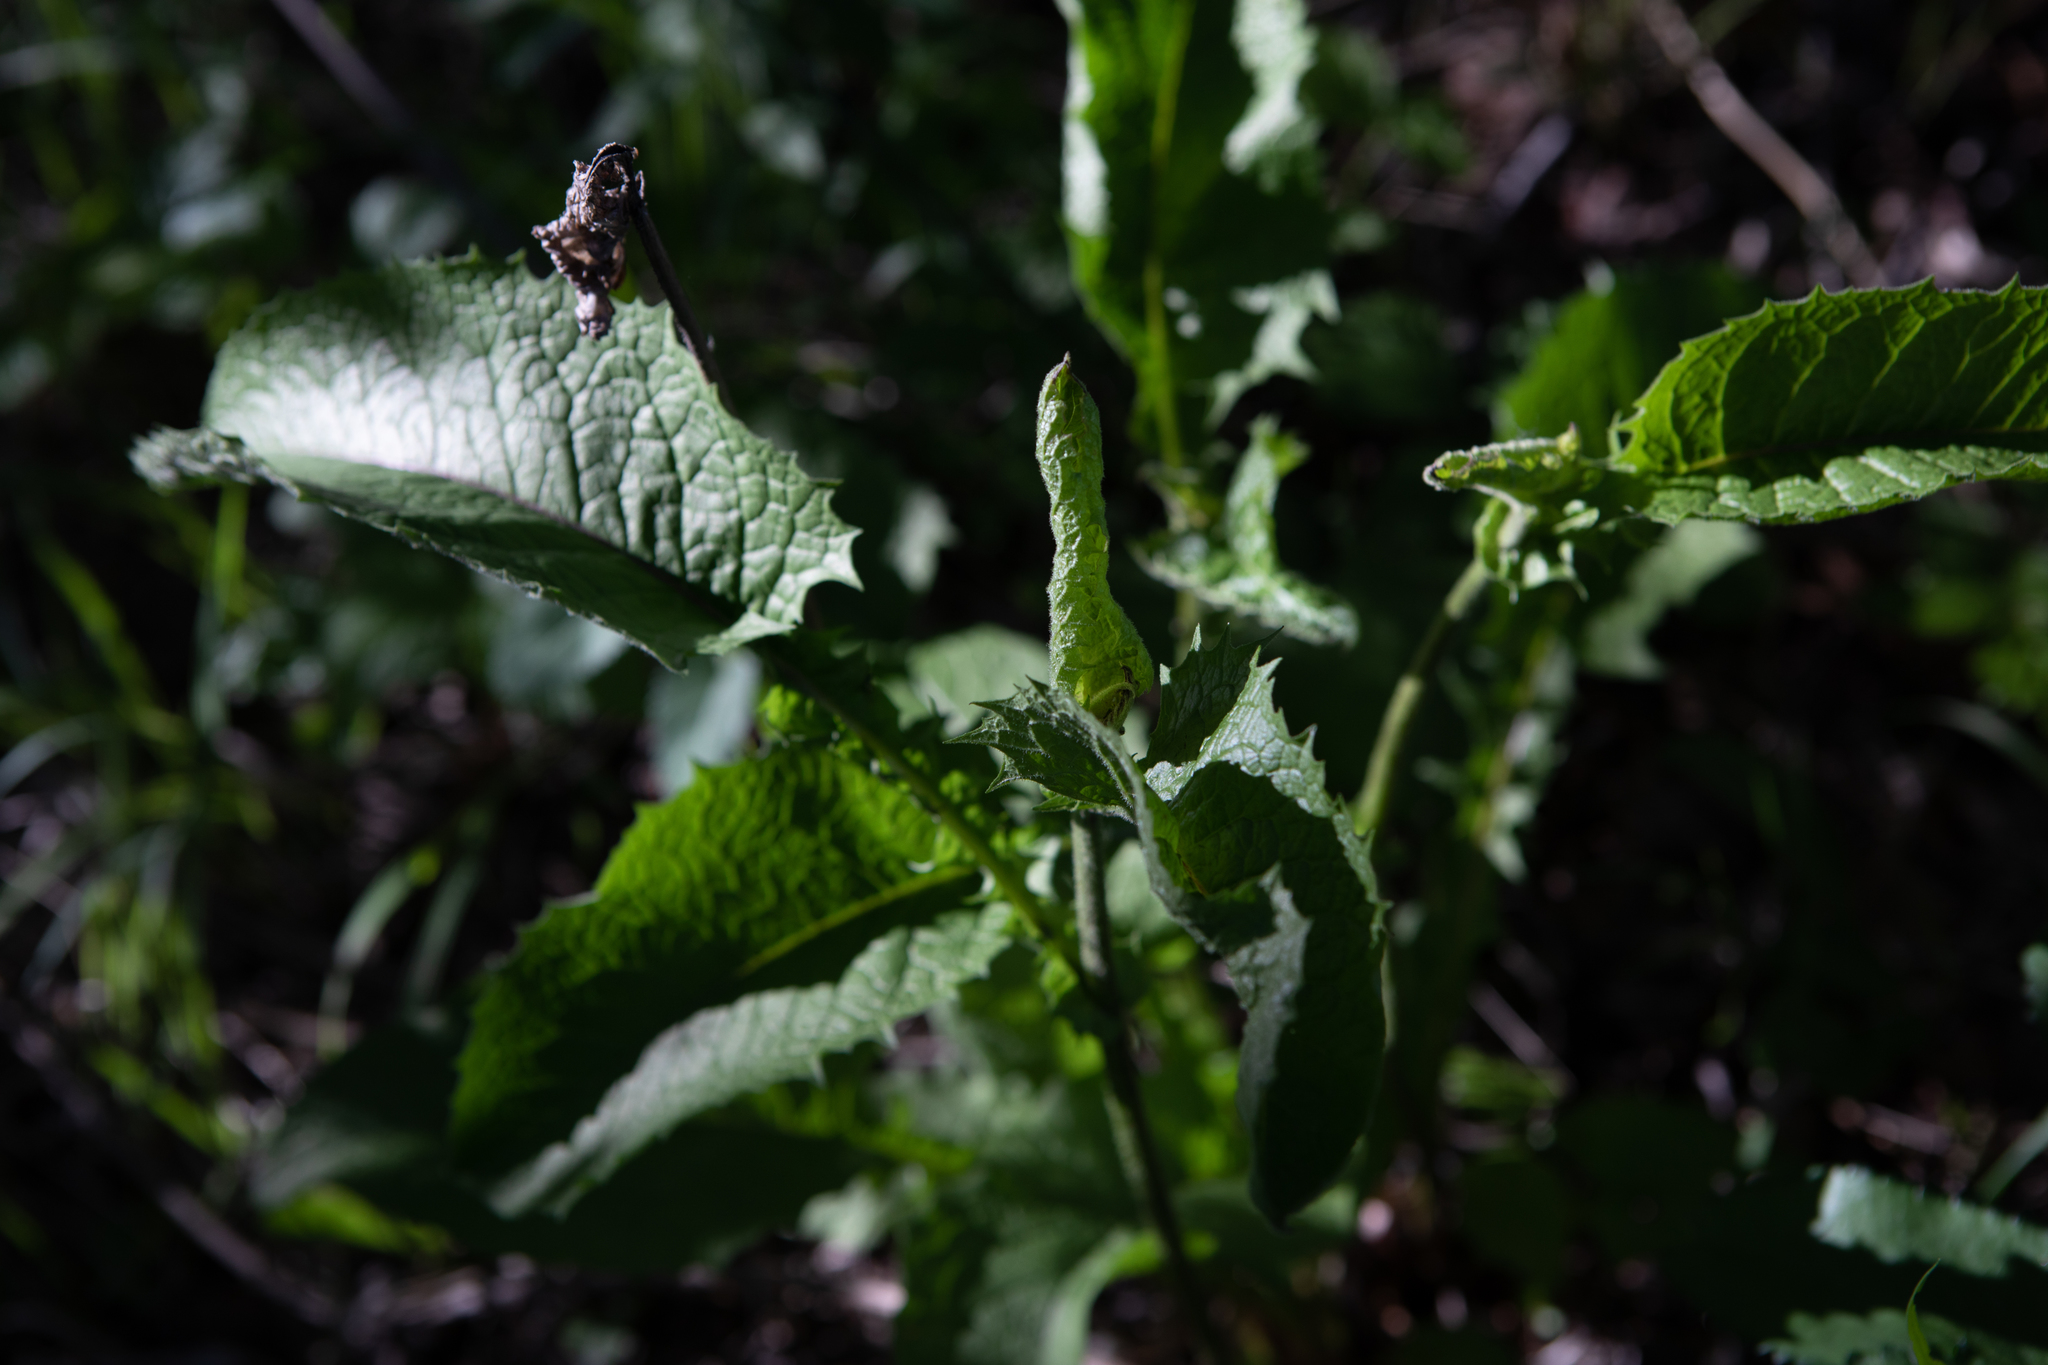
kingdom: Plantae
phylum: Tracheophyta
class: Magnoliopsida
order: Asterales
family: Asteraceae
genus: Crepis
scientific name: Crepis sibirica
